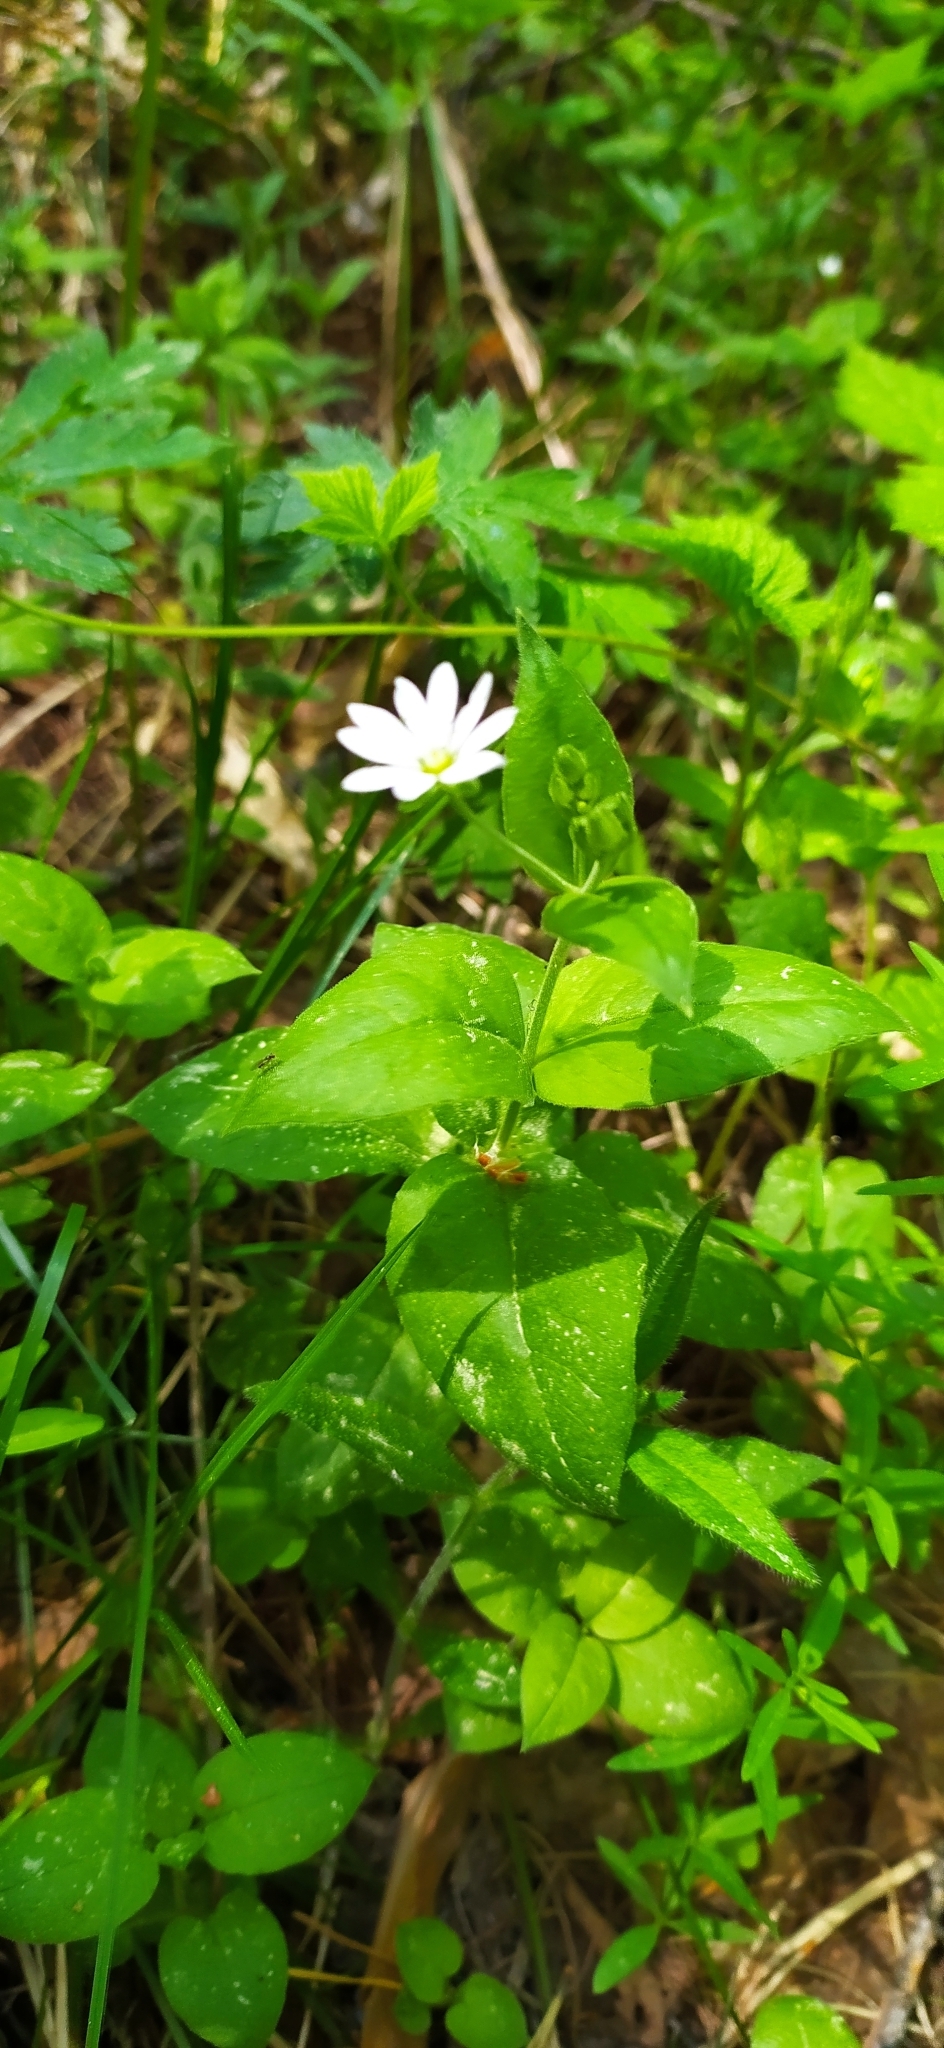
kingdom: Plantae
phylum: Tracheophyta
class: Magnoliopsida
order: Caryophyllales
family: Caryophyllaceae
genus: Stellaria
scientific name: Stellaria bungeana
